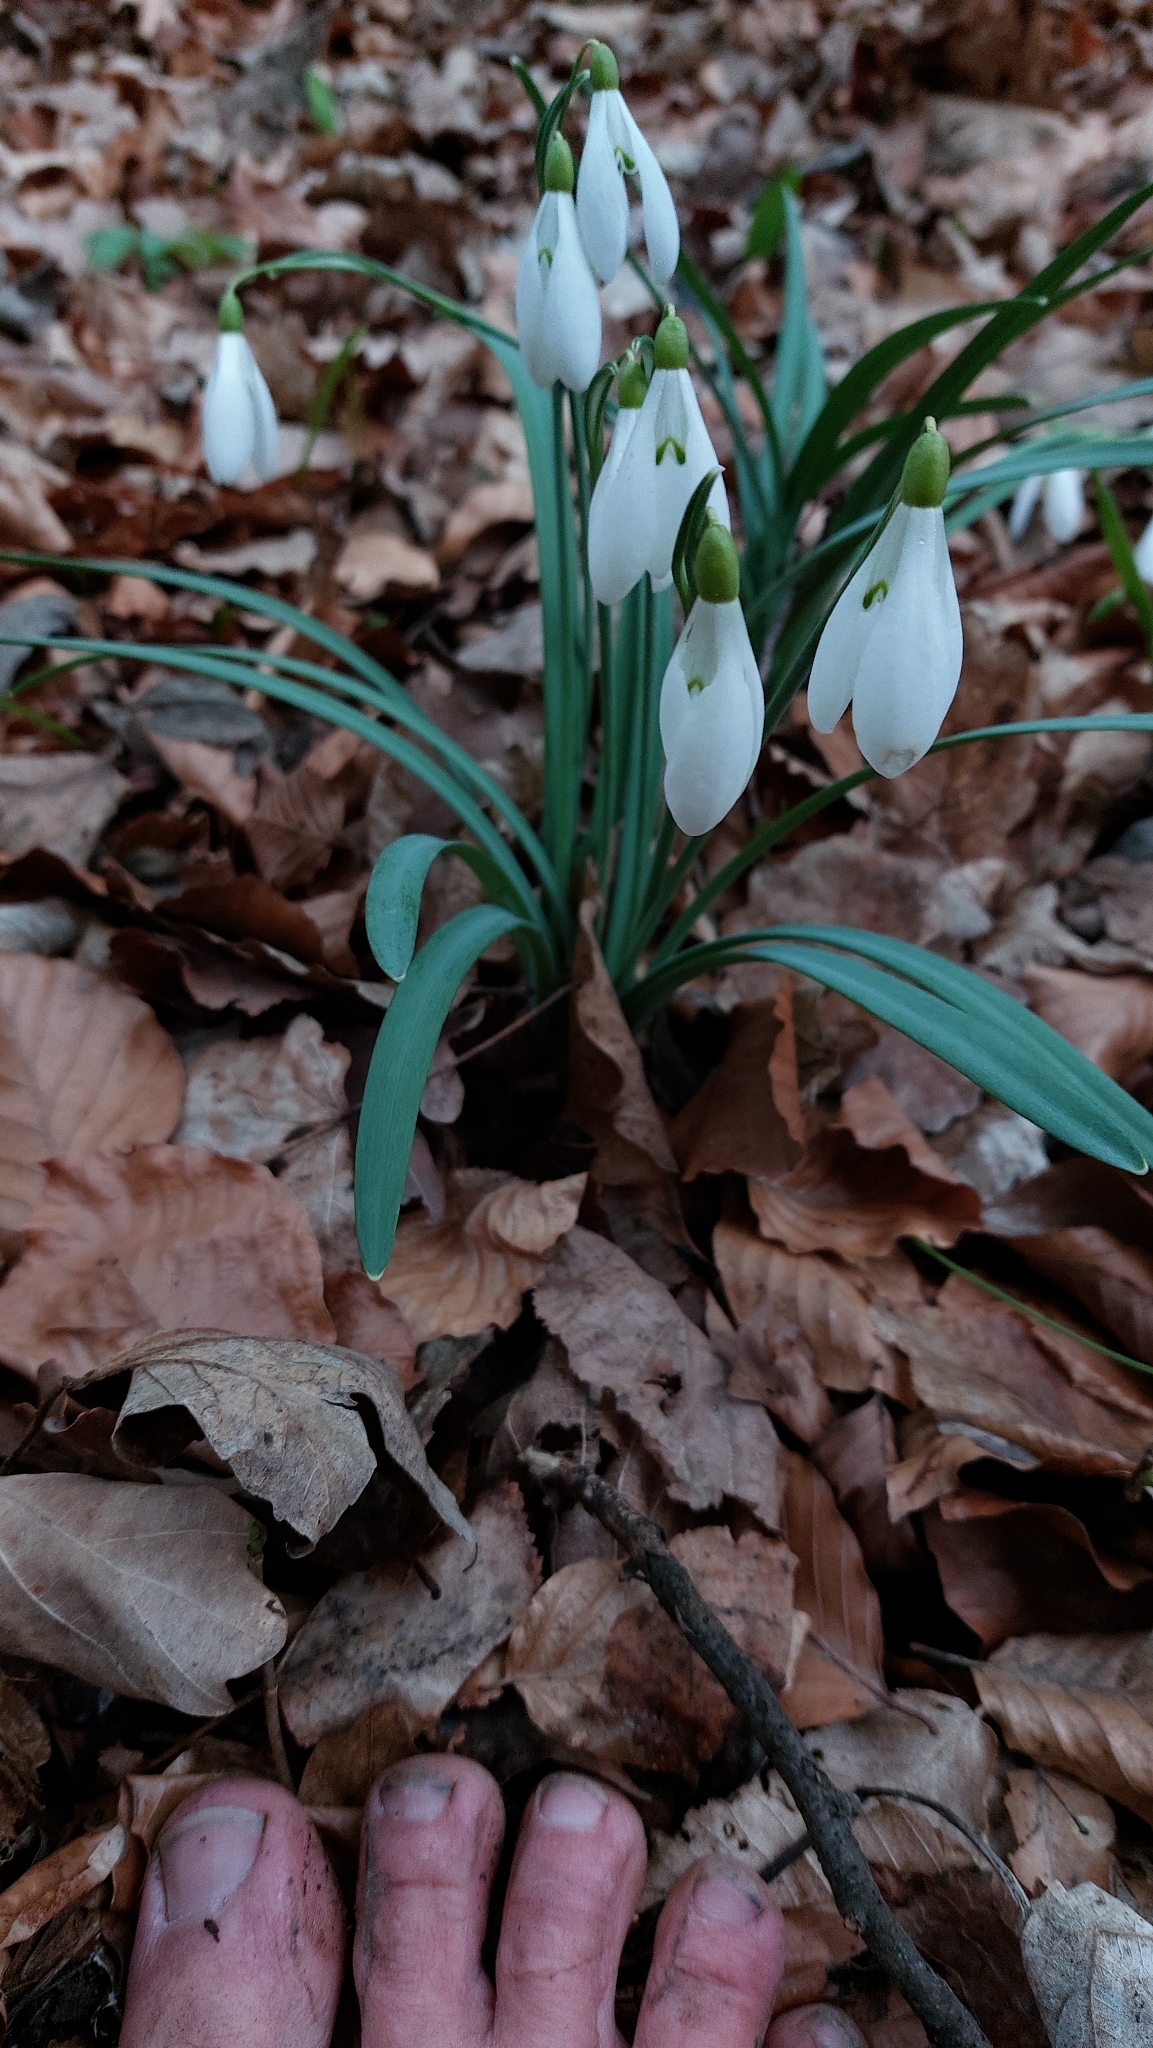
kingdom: Plantae
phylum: Tracheophyta
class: Liliopsida
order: Asparagales
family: Amaryllidaceae
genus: Galanthus
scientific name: Galanthus nivalis
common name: Snowdrop
